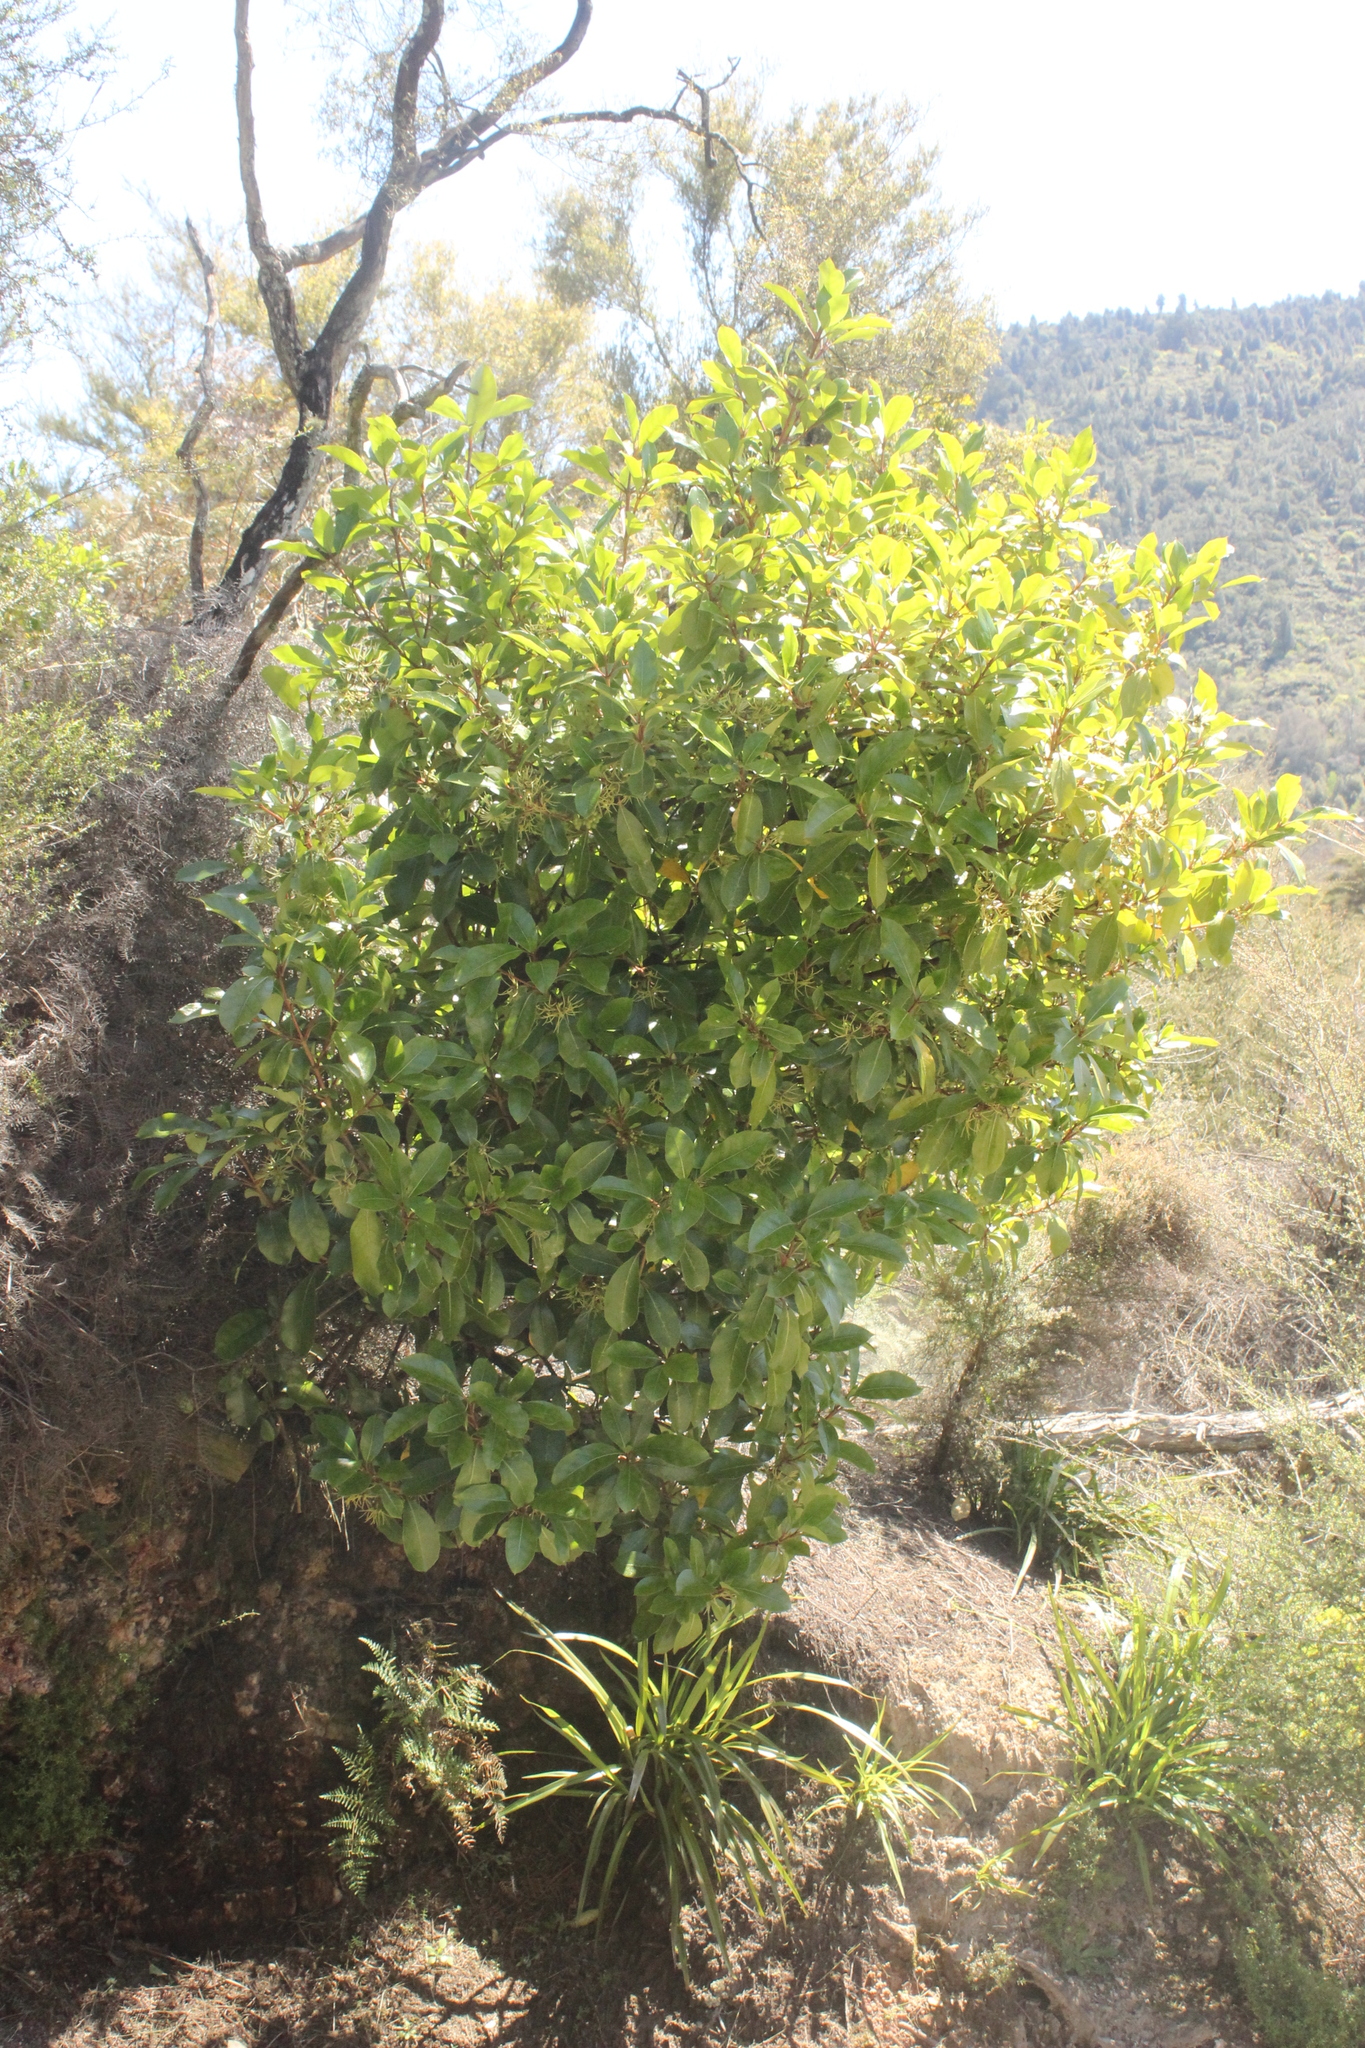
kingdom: Plantae
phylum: Tracheophyta
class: Magnoliopsida
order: Gentianales
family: Rubiaceae
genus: Coprosma
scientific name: Coprosma lucida
